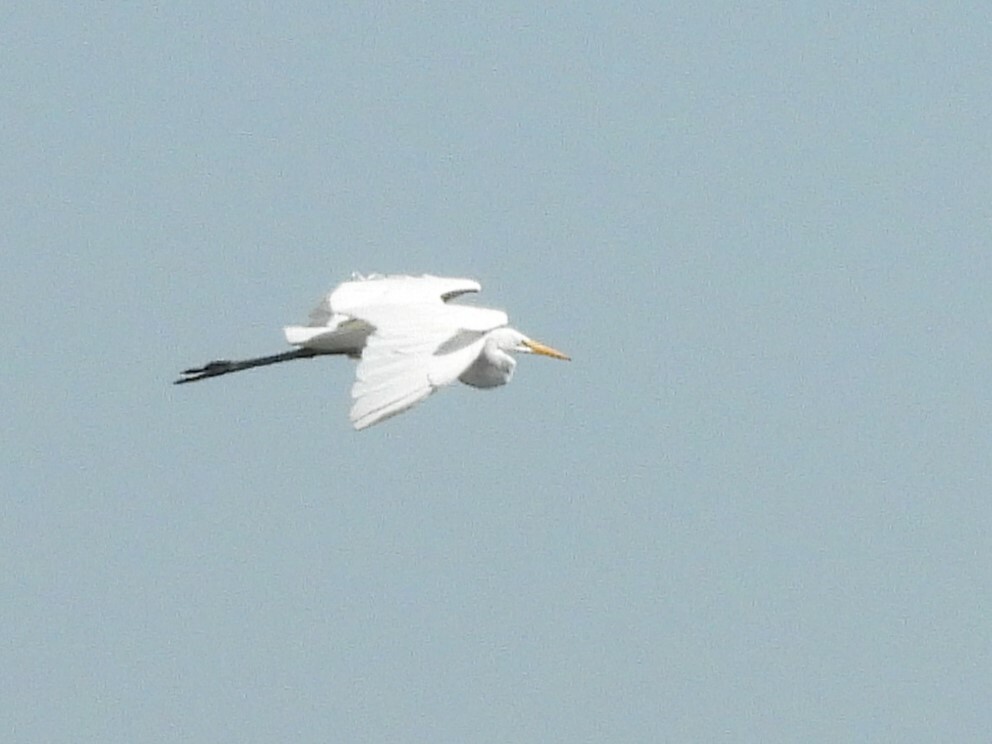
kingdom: Animalia
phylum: Chordata
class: Aves
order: Pelecaniformes
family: Ardeidae
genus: Ardea
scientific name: Ardea alba
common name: Great egret
